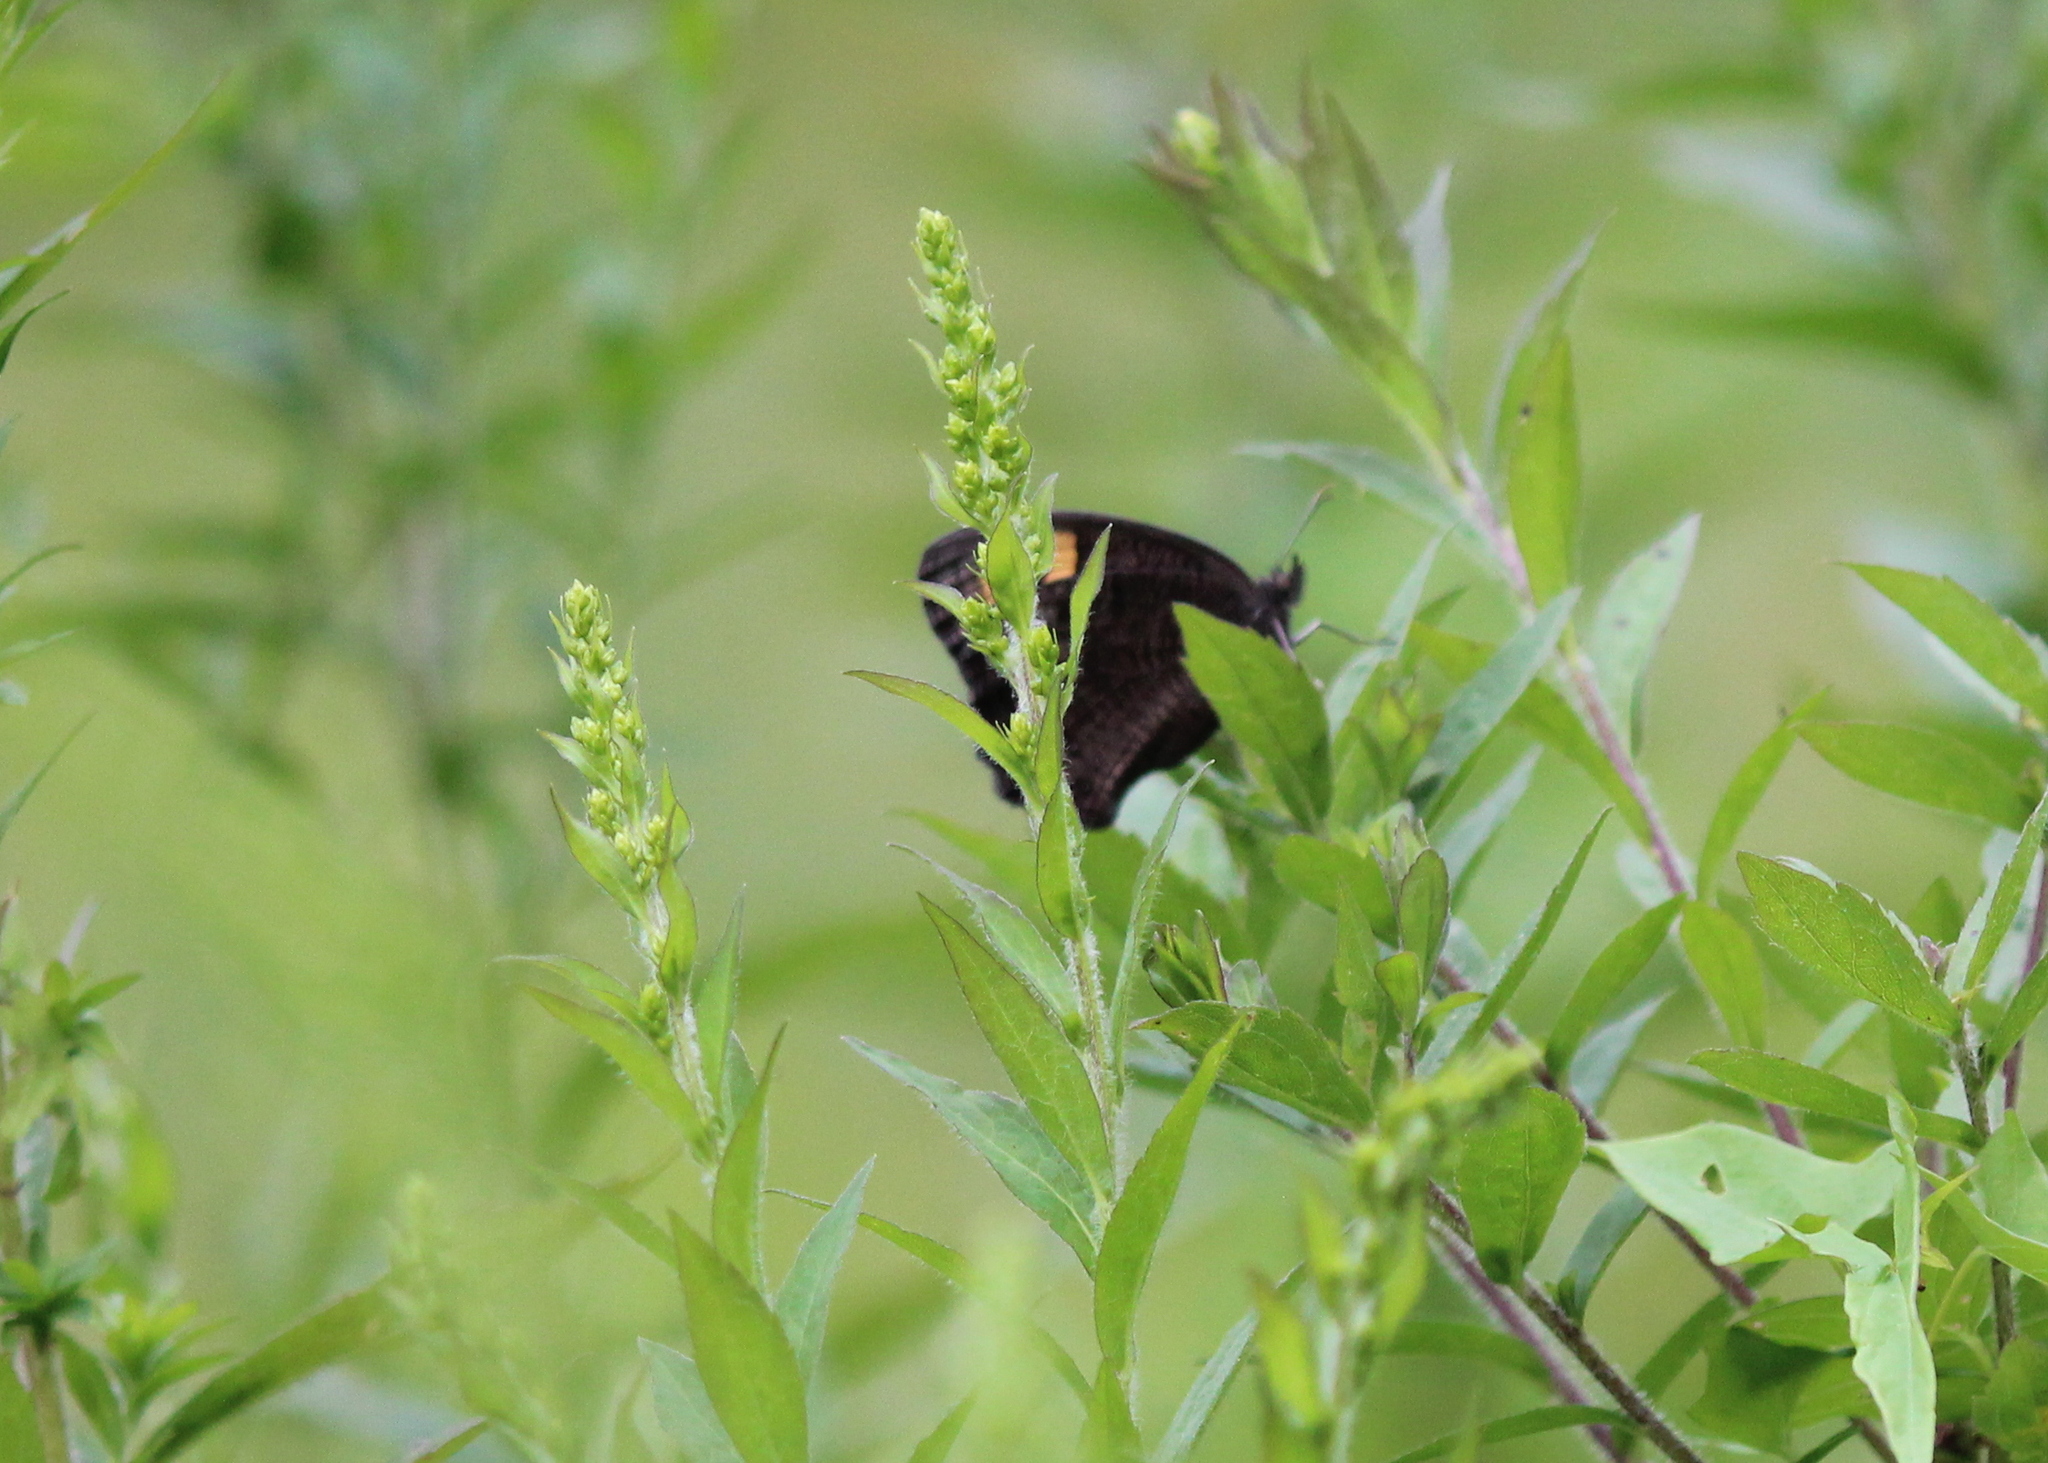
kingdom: Animalia
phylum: Arthropoda
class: Insecta
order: Lepidoptera
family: Nymphalidae
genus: Cercyonis
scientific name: Cercyonis pegala
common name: Common wood-nymph
